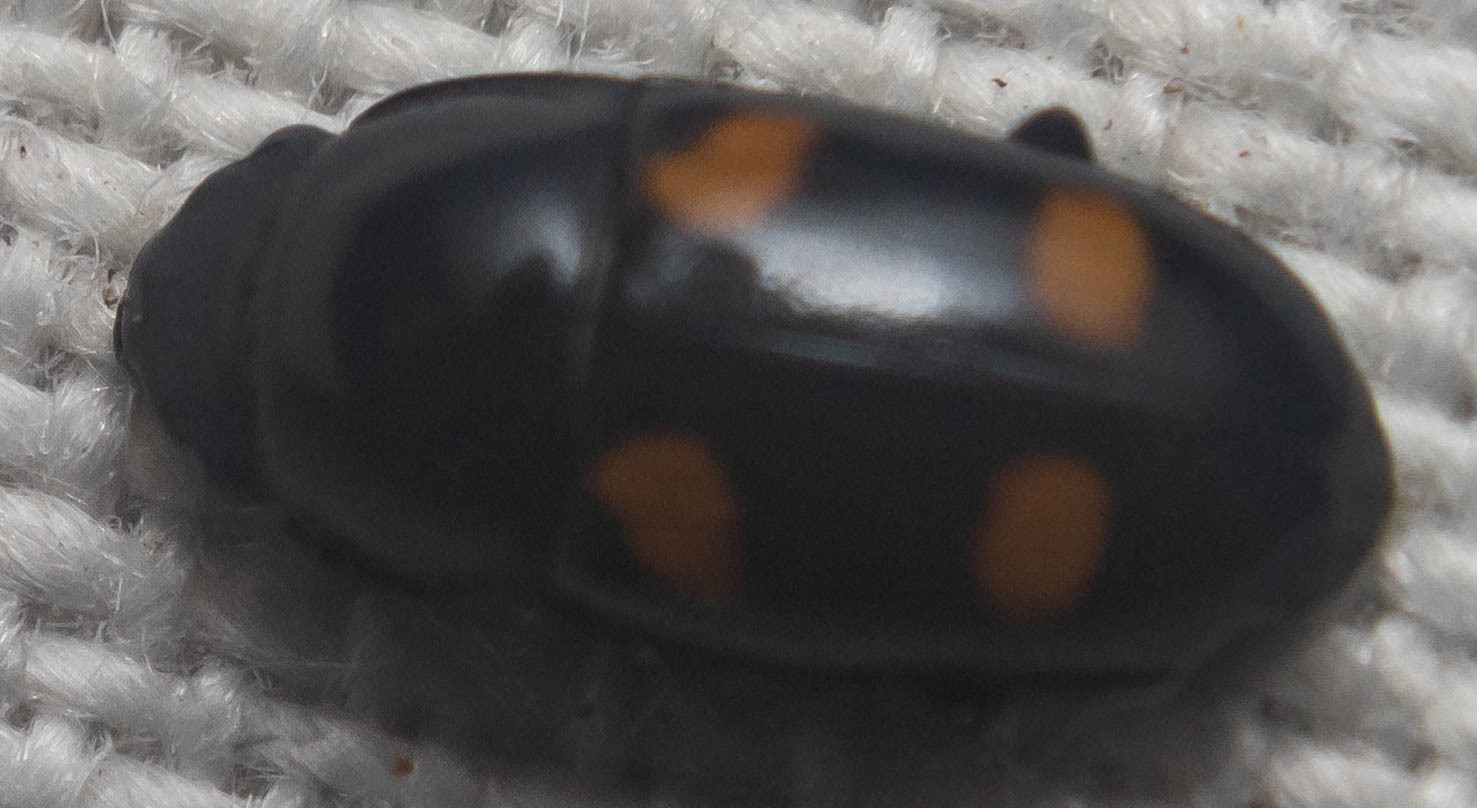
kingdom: Animalia
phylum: Arthropoda
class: Insecta
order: Coleoptera
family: Nitidulidae
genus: Glischrochilus
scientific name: Glischrochilus hortensis
